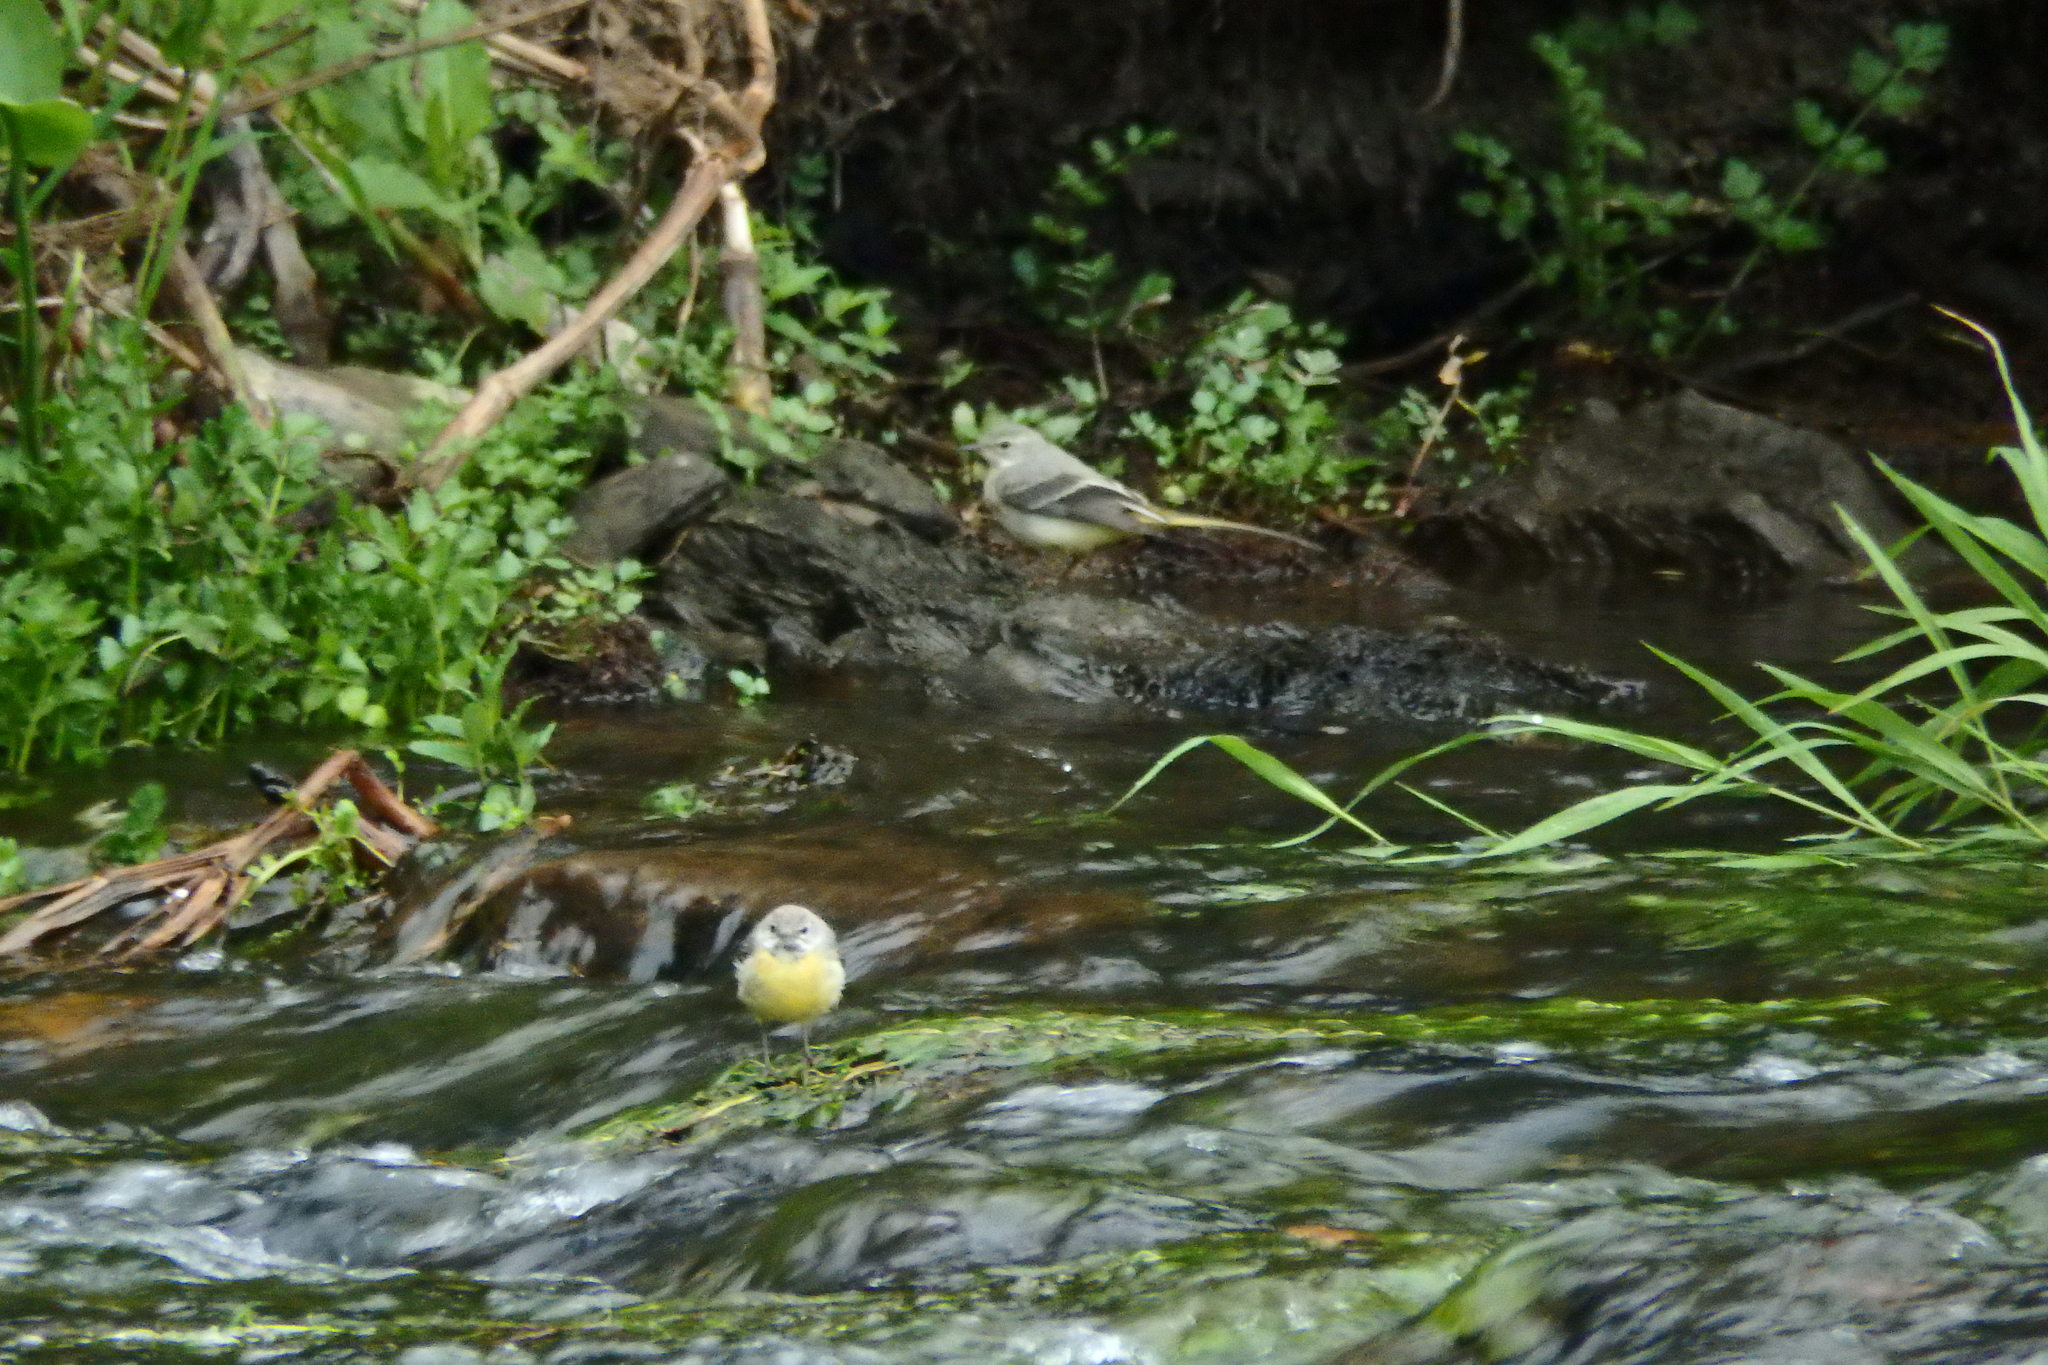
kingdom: Animalia
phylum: Chordata
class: Aves
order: Passeriformes
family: Motacillidae
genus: Motacilla
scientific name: Motacilla cinerea
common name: Grey wagtail
